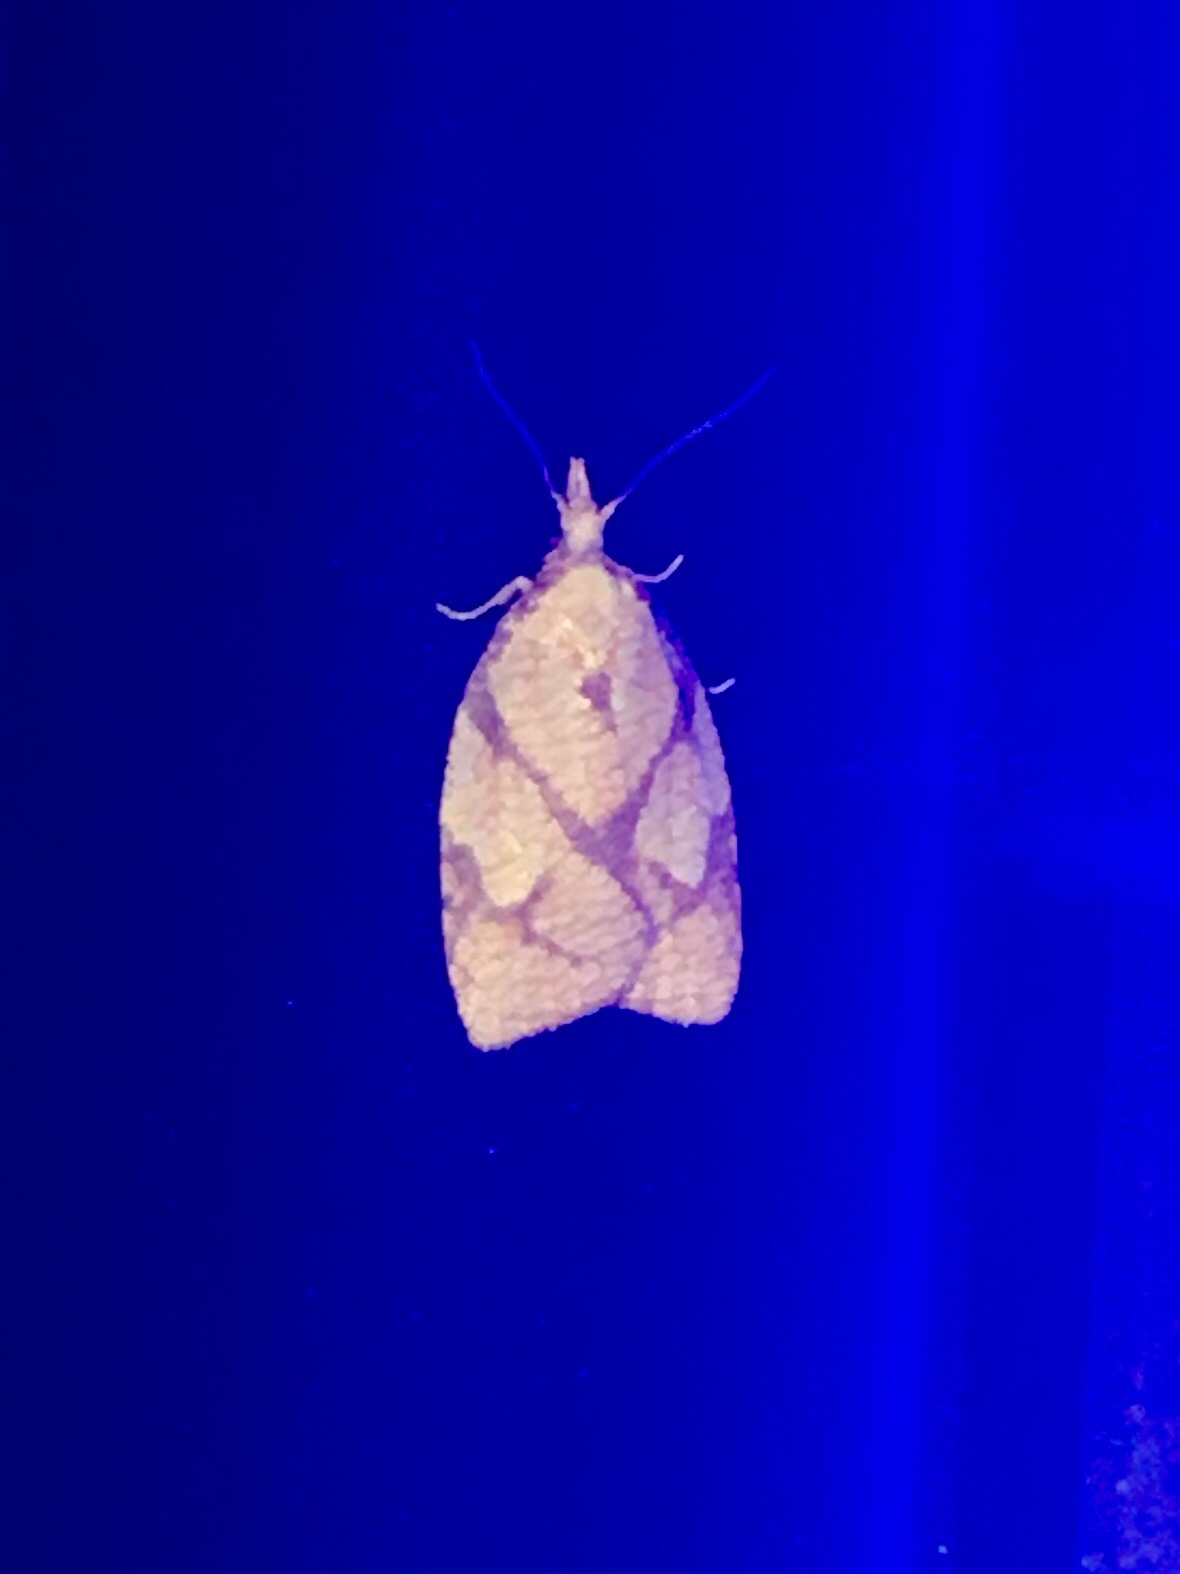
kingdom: Animalia
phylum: Arthropoda
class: Insecta
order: Lepidoptera
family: Tortricidae
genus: Cenopis
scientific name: Cenopis reticulatana
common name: Reticulated fruitworm moth
